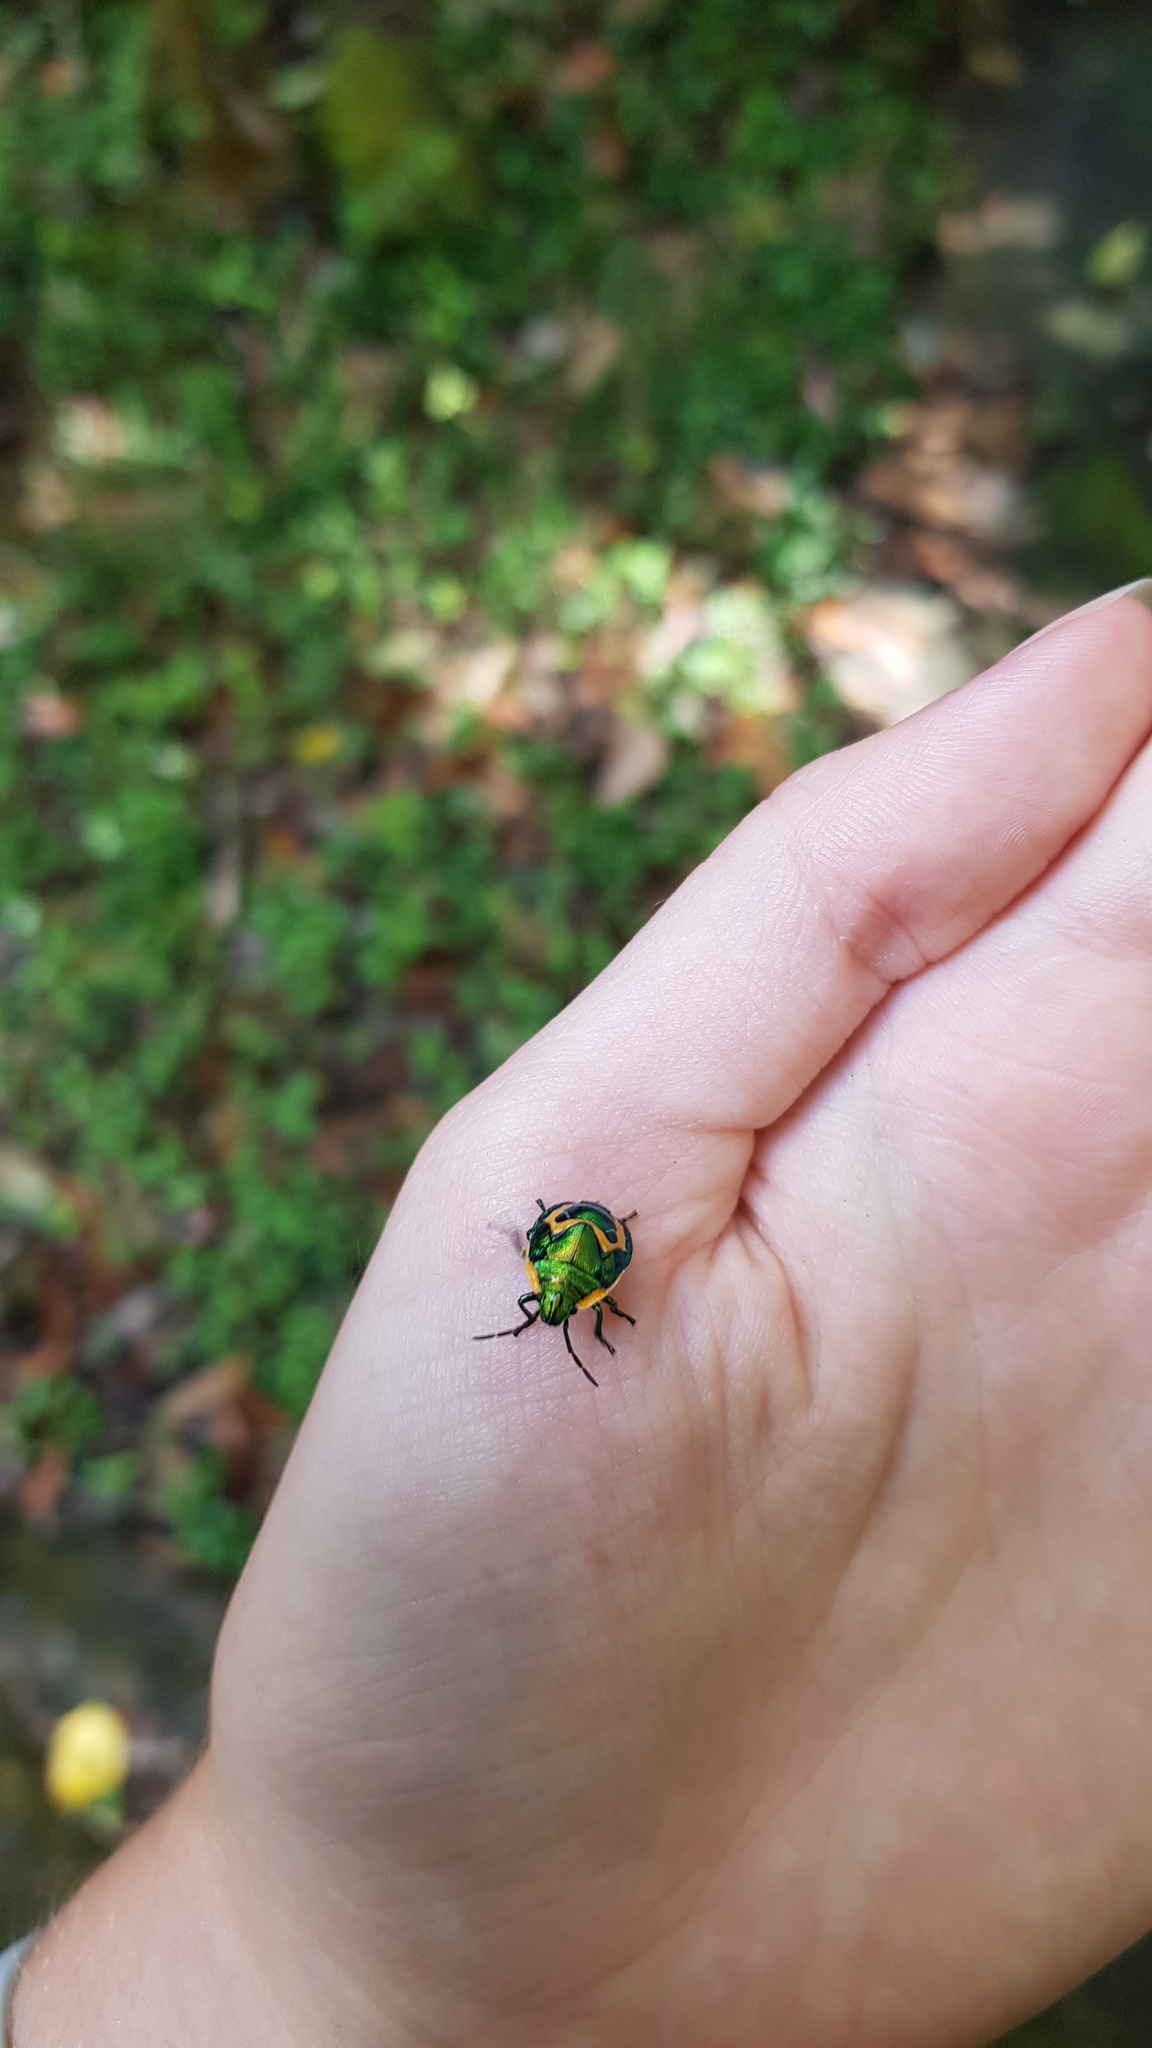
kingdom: Animalia
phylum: Arthropoda
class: Insecta
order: Hemiptera
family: Scutelleridae
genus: Scutiphora
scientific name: Scutiphora pedicellata
